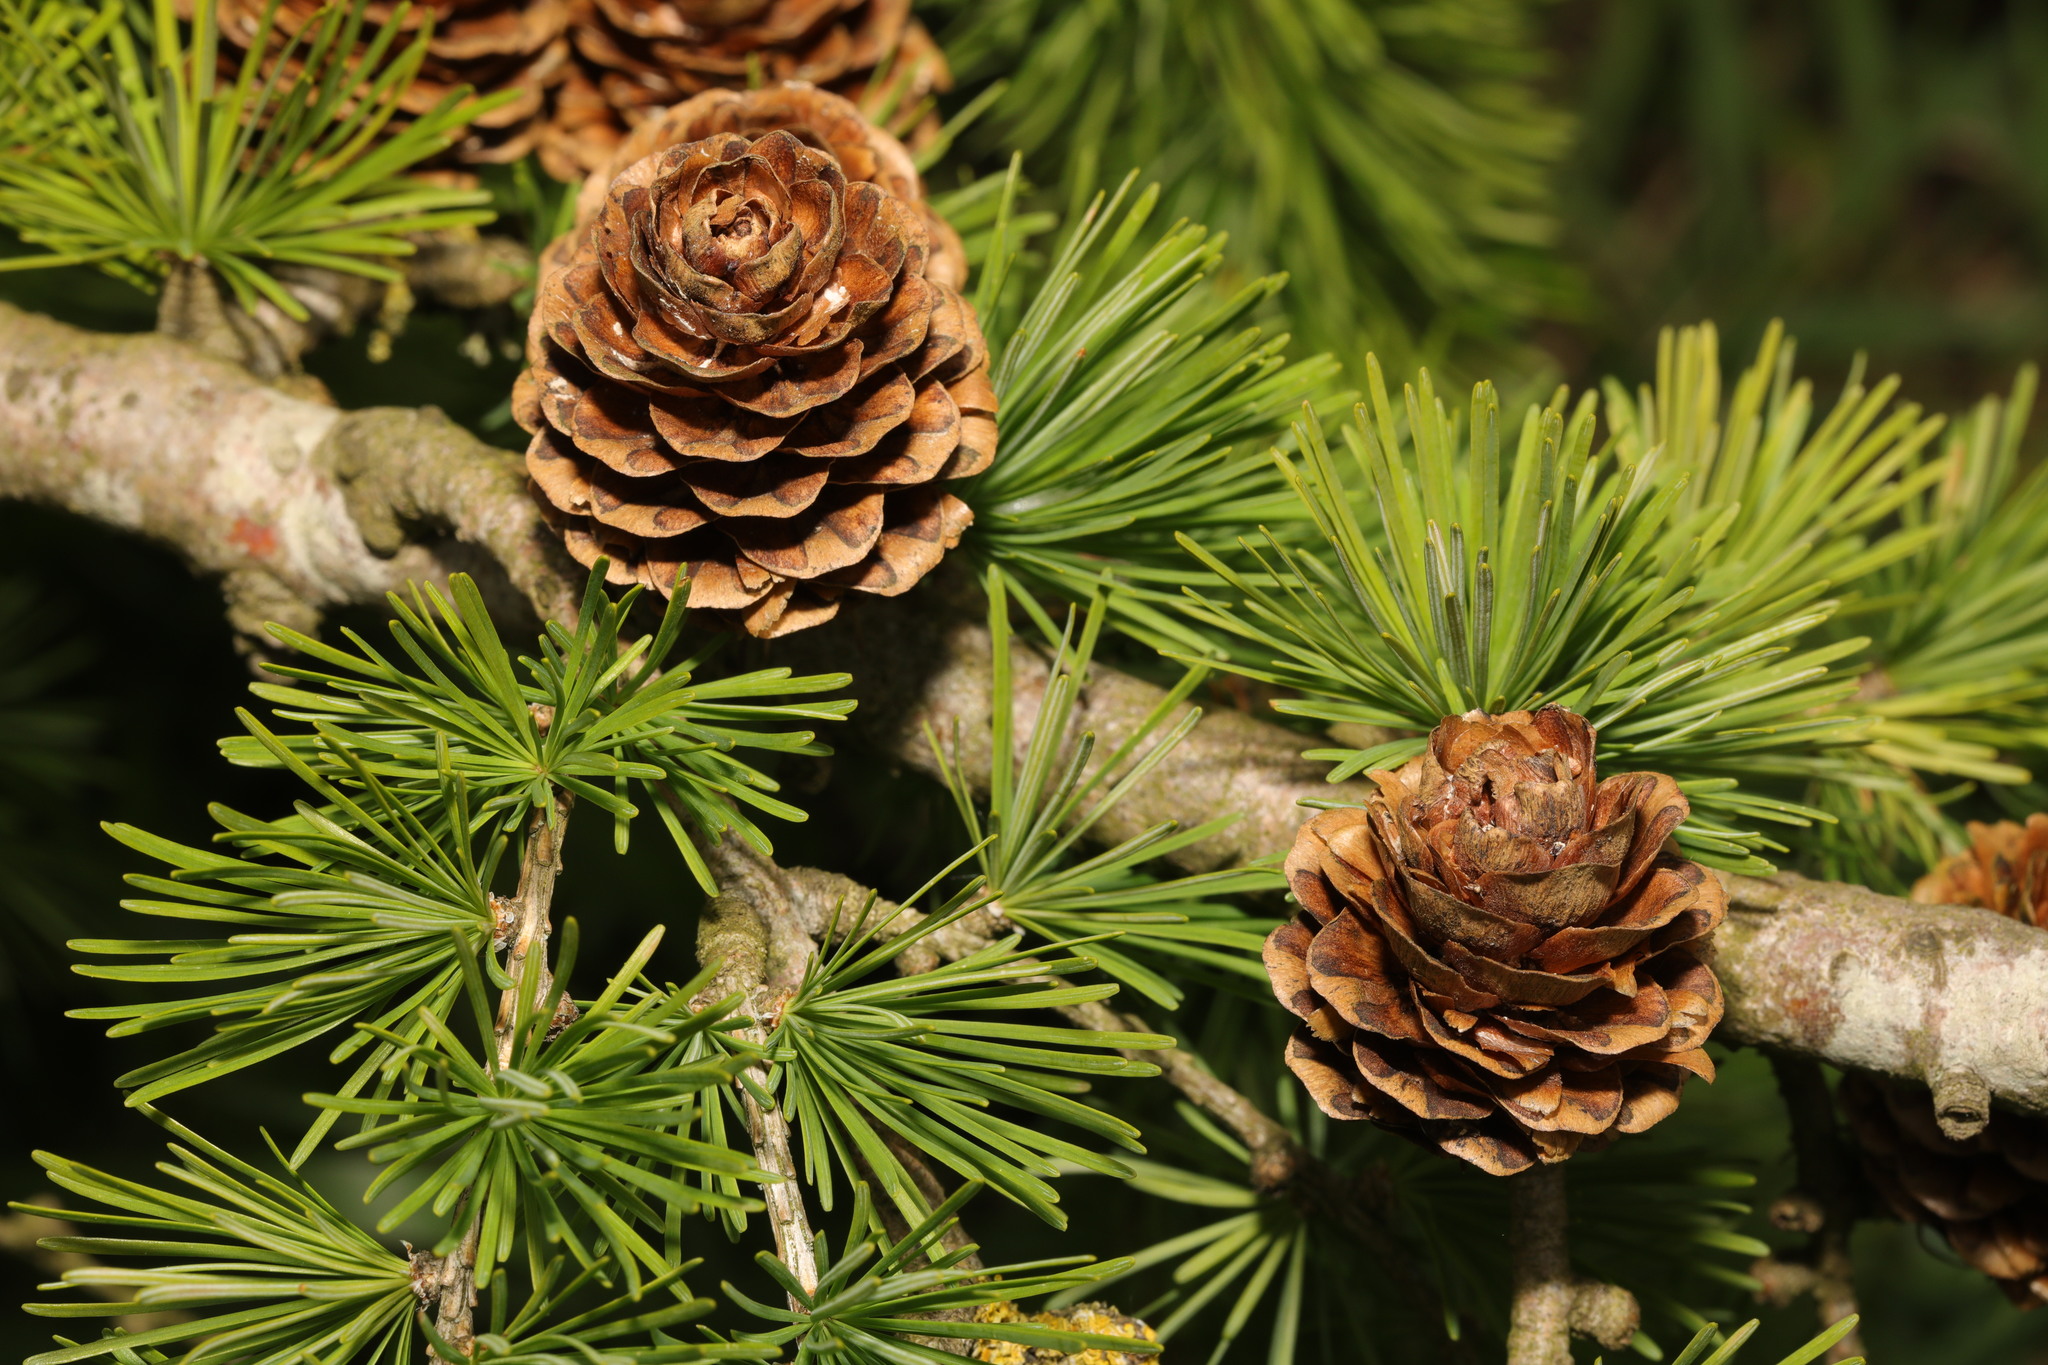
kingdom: Plantae
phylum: Tracheophyta
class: Pinopsida
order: Pinales
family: Pinaceae
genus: Larix
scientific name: Larix decidua
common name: European larch
